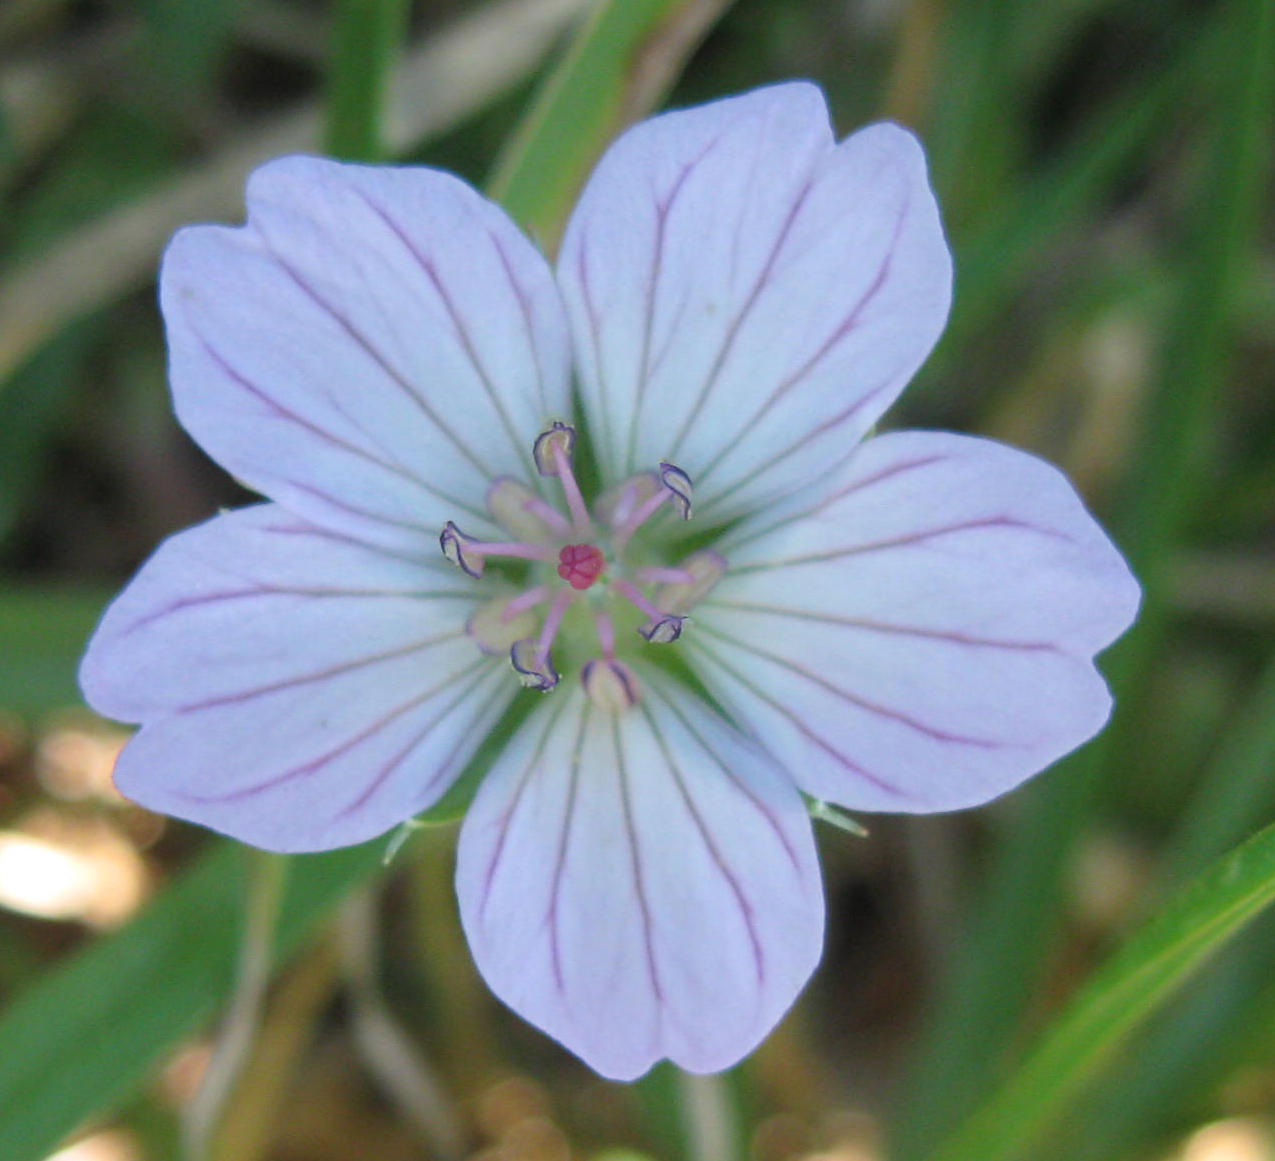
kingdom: Plantae
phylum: Tracheophyta
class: Magnoliopsida
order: Geraniales
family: Geraniaceae
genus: Geranium
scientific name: Geranium incanum
